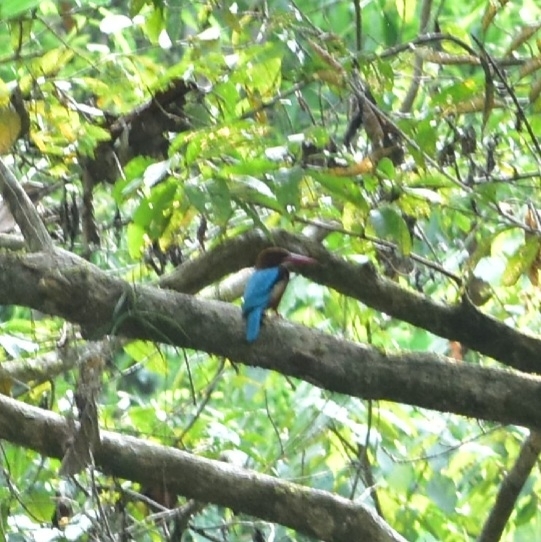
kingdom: Animalia
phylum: Chordata
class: Aves
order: Coraciiformes
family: Alcedinidae
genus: Halcyon
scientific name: Halcyon smyrnensis
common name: White-throated kingfisher
